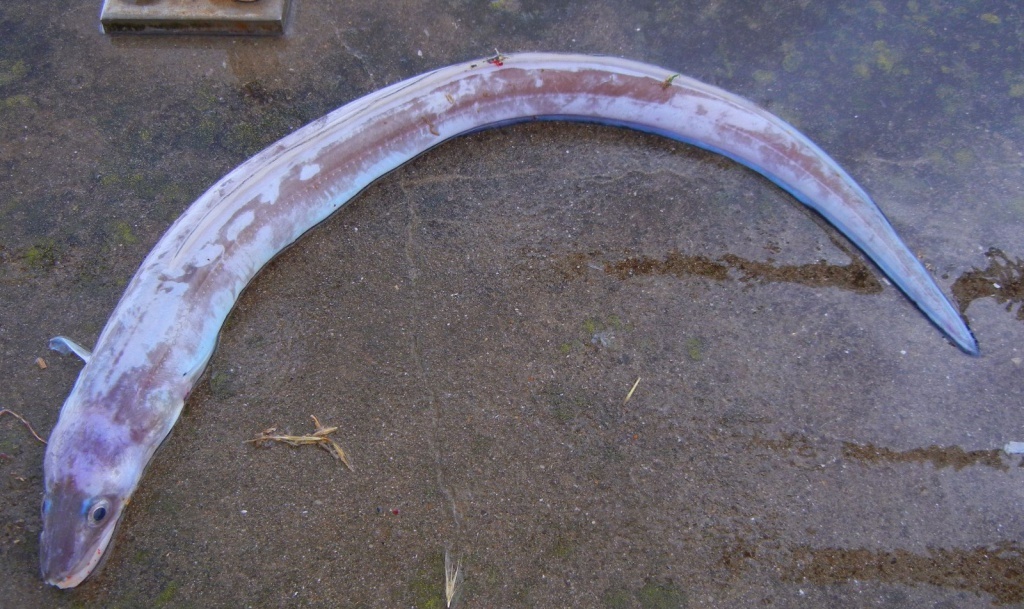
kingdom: Animalia
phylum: Chordata
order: Anguilliformes
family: Congridae
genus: Conger
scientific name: Conger conger
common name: Conger eel
